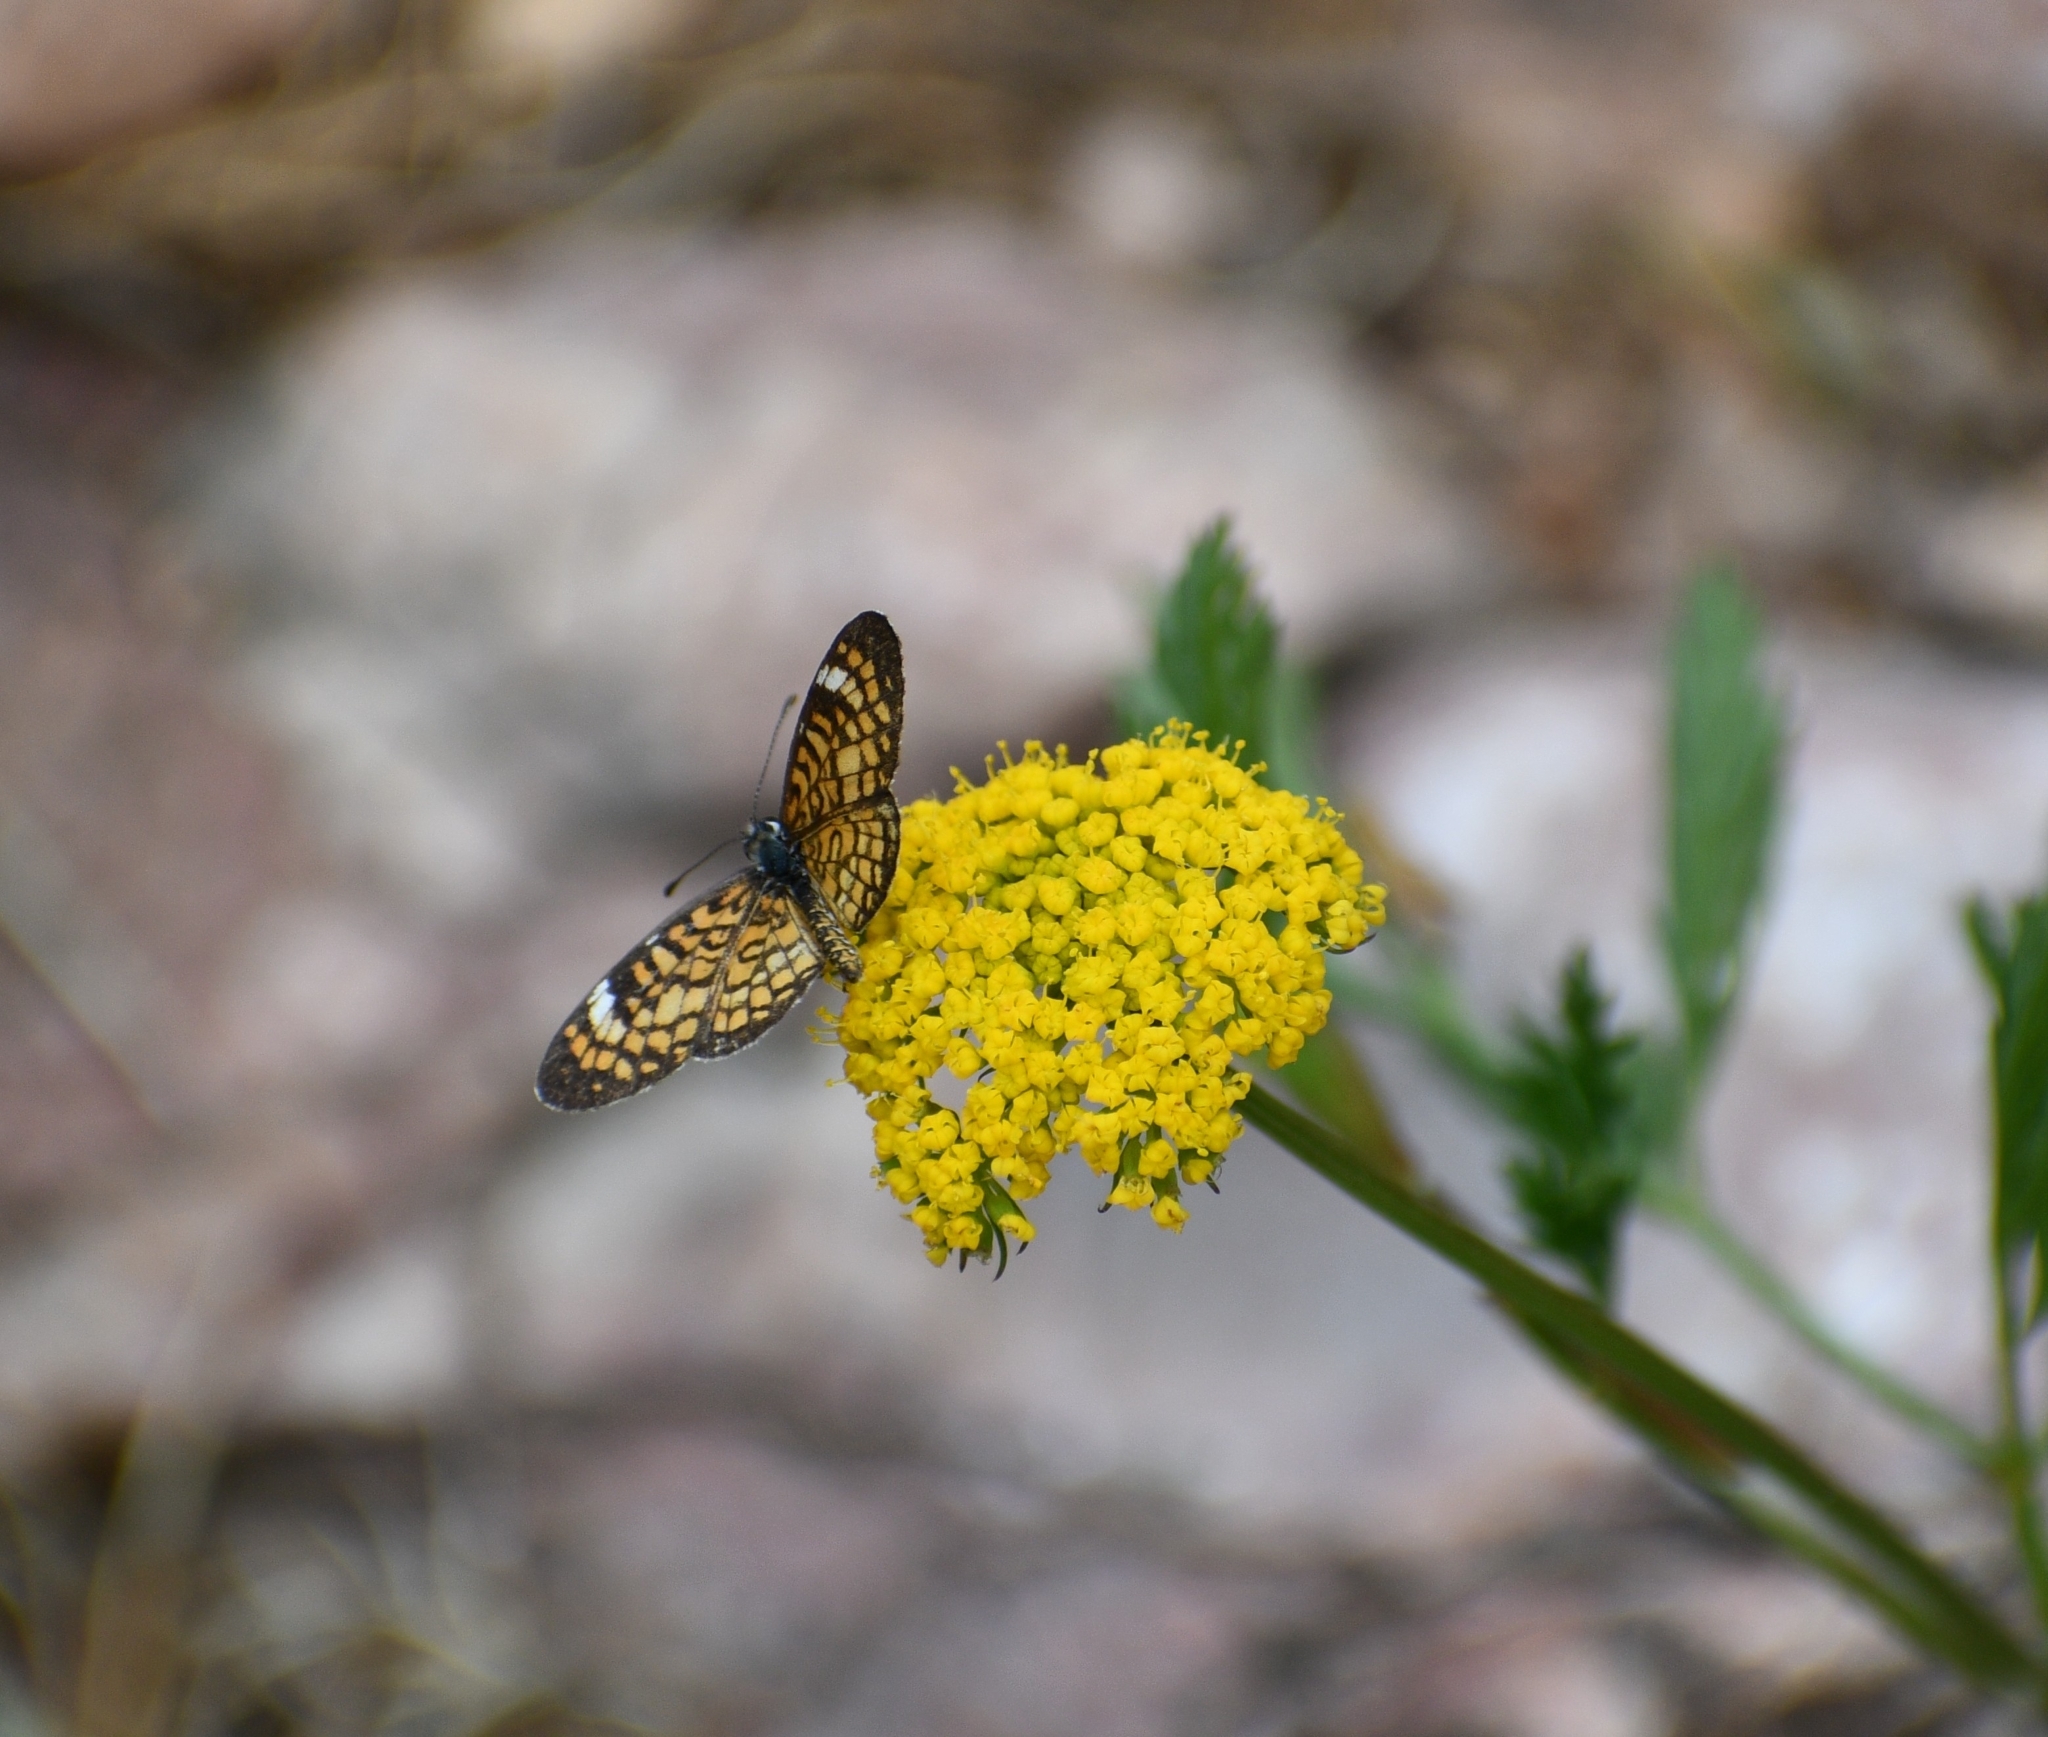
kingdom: Animalia
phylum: Arthropoda
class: Insecta
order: Lepidoptera
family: Nymphalidae
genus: Dymasia
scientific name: Dymasia dymas
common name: Tiny checkerspot
